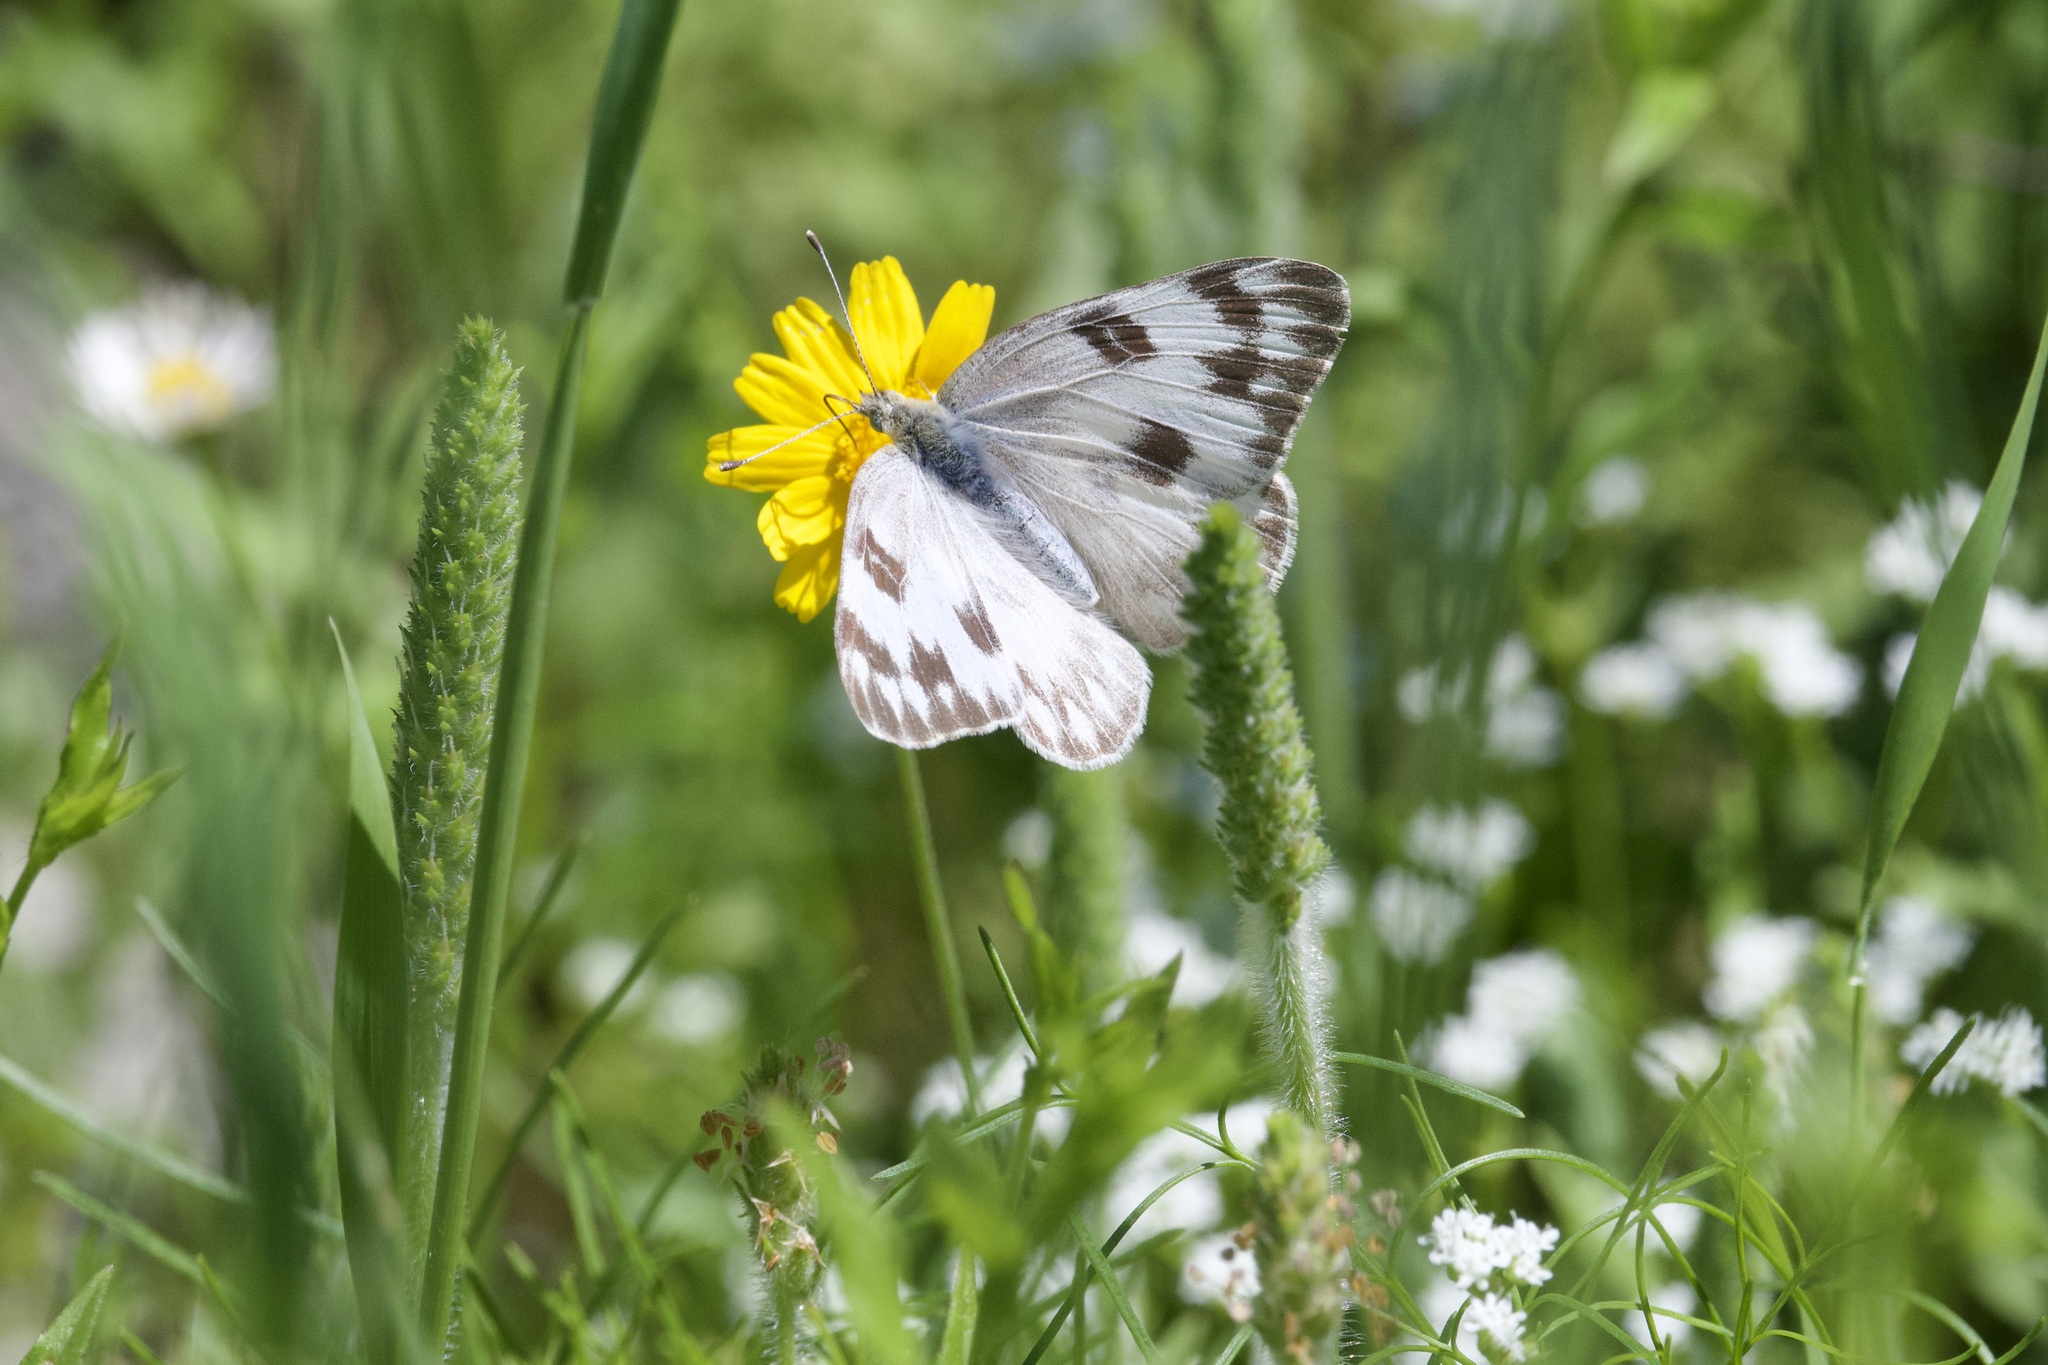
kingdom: Animalia
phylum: Arthropoda
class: Insecta
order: Lepidoptera
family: Pieridae
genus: Pontia
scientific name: Pontia protodice
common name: Checkered white
